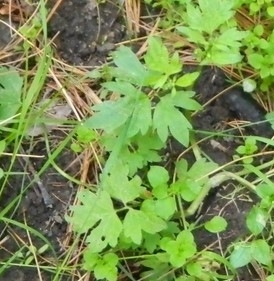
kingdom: Plantae
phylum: Tracheophyta
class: Magnoliopsida
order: Ranunculales
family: Ranunculaceae
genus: Ranunculus
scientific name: Ranunculus repens
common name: Creeping buttercup
